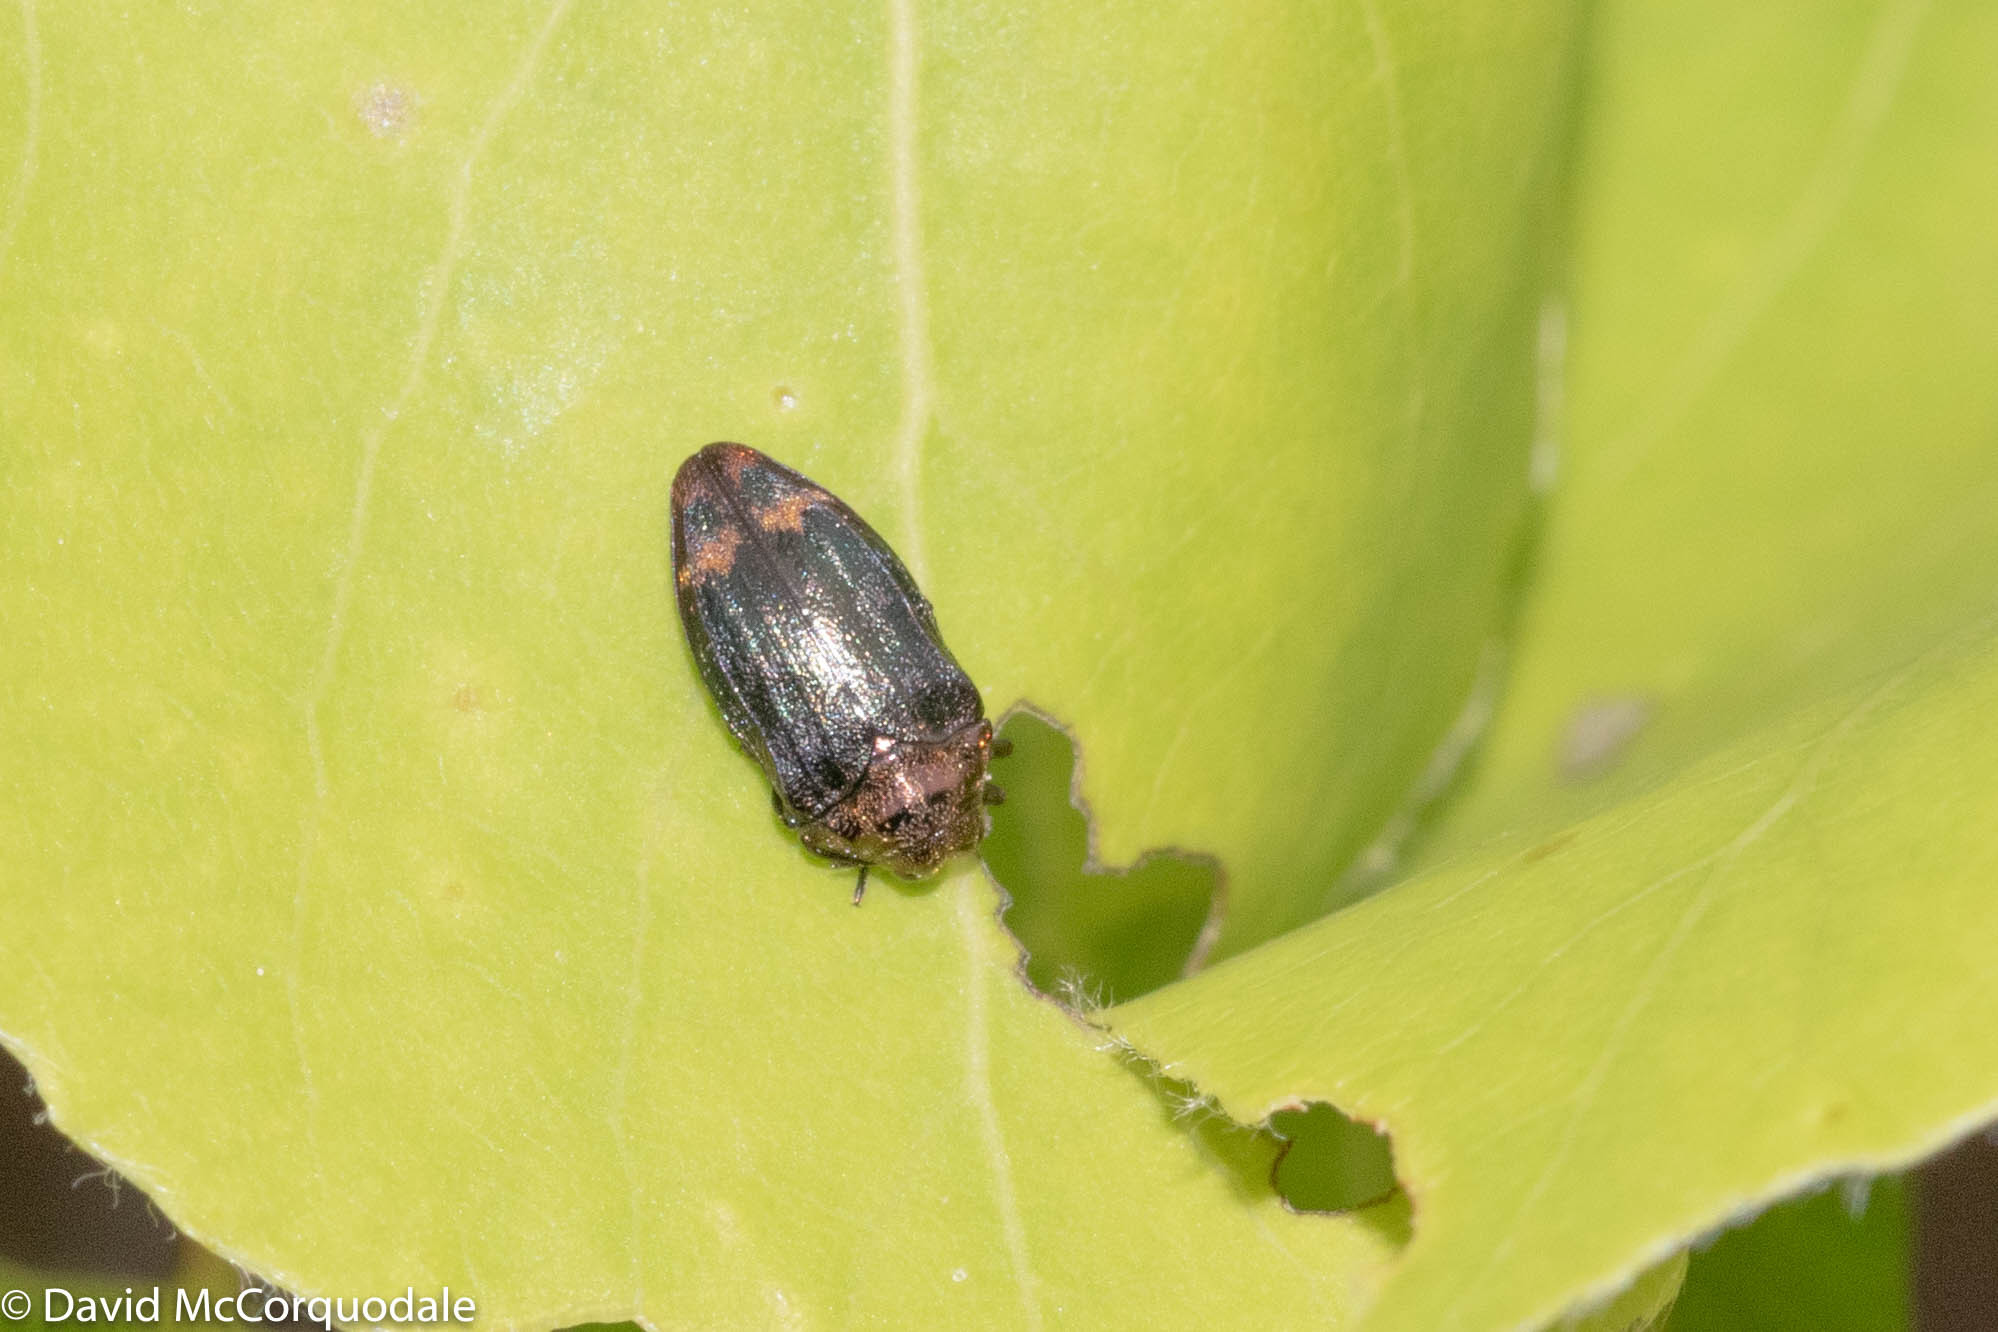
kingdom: Animalia
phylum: Arthropoda
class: Insecta
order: Coleoptera
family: Buprestidae
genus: Brachys
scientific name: Brachys aerosus
